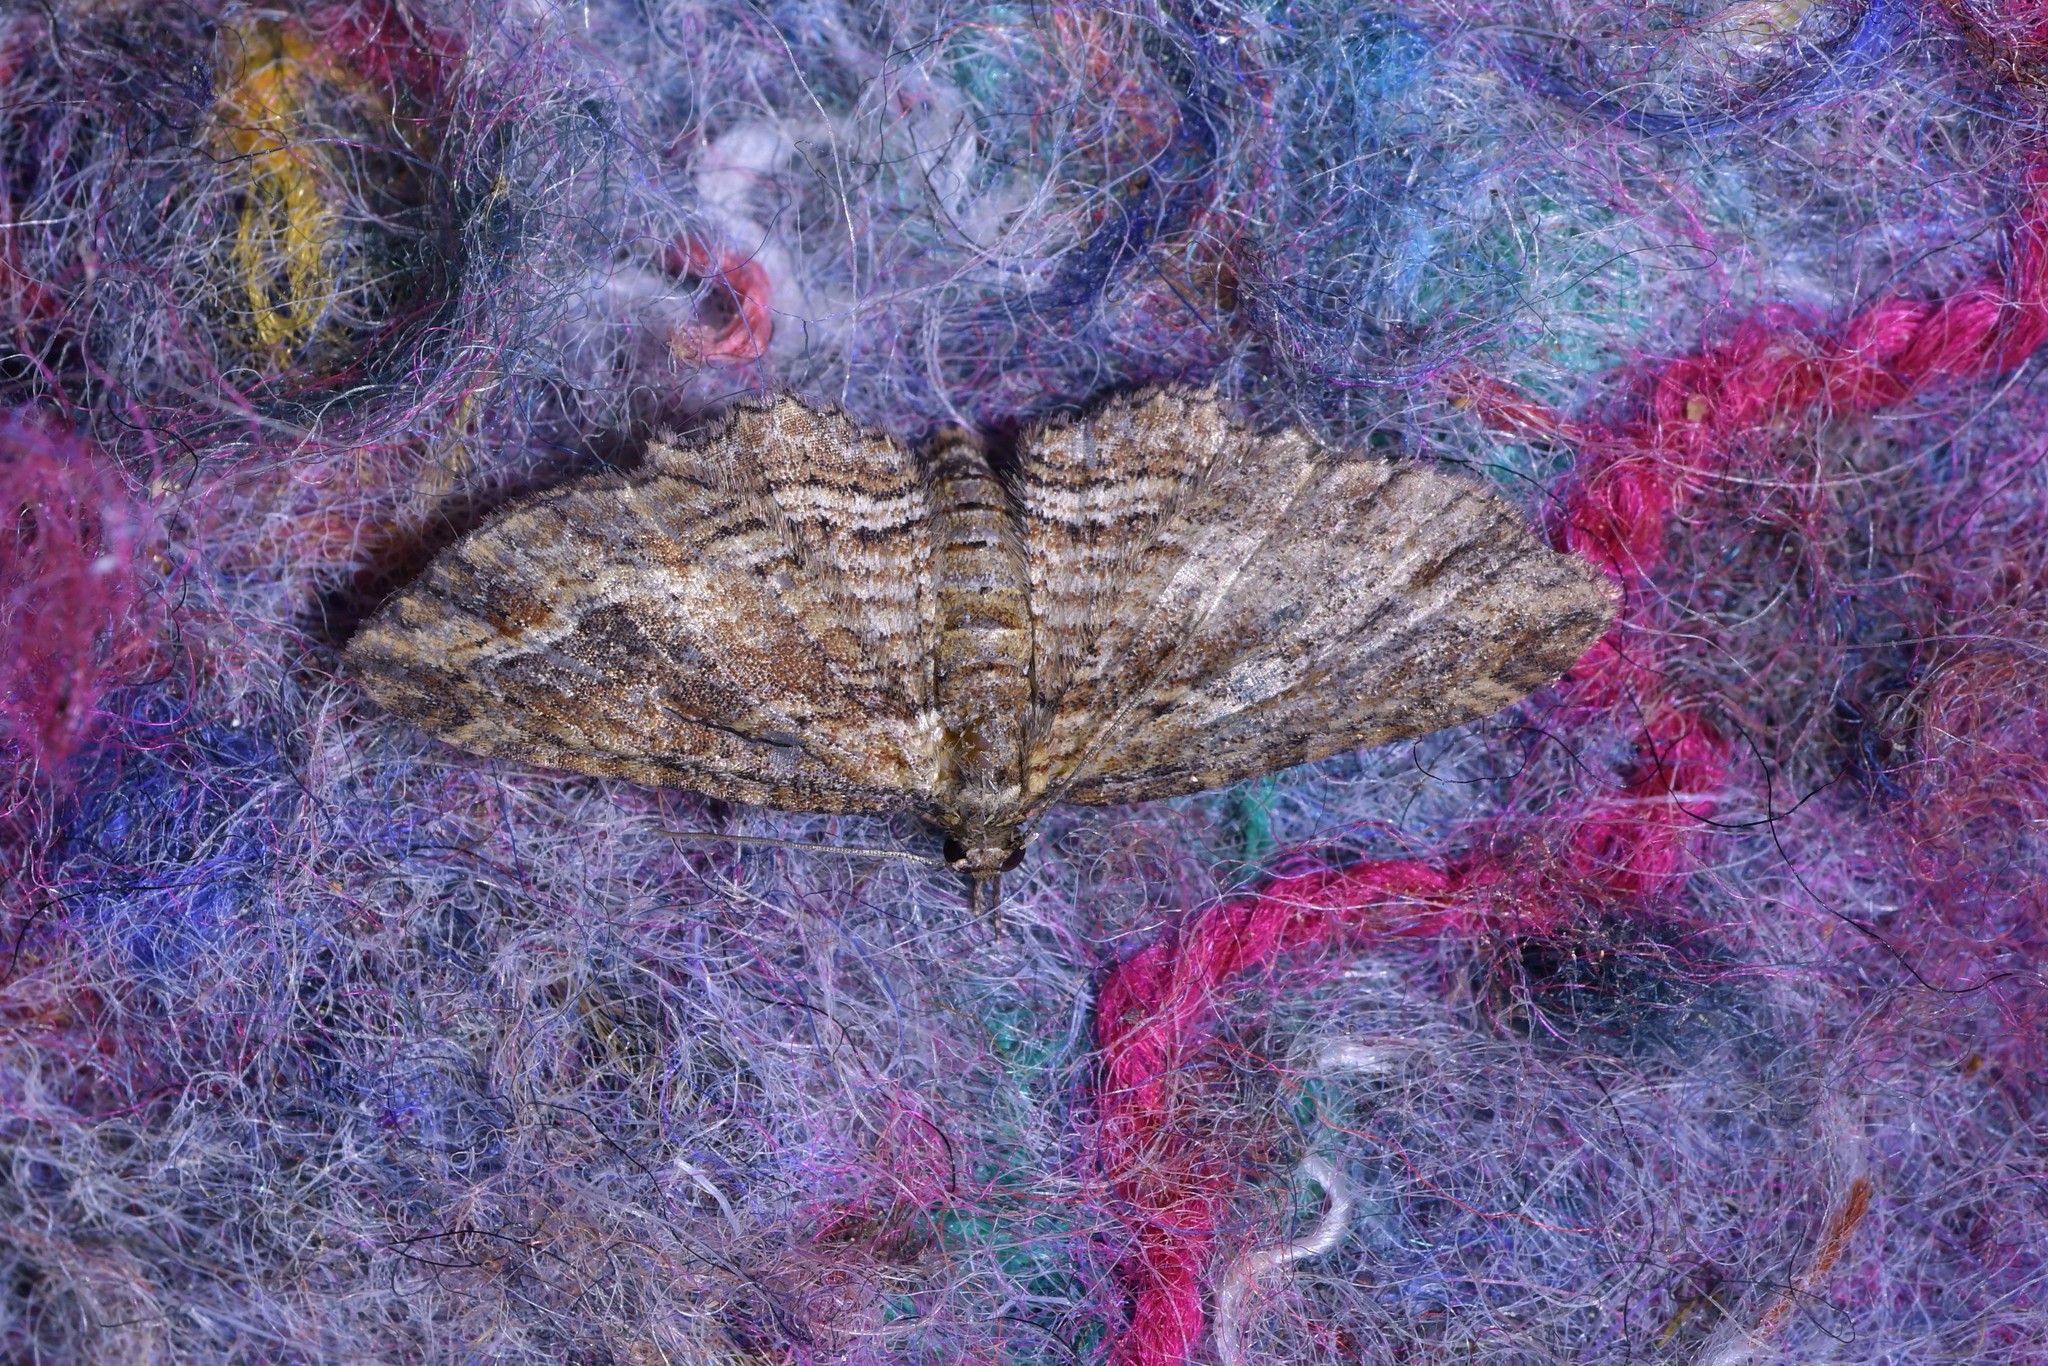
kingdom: Animalia
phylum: Arthropoda
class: Insecta
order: Lepidoptera
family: Geometridae
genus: Chloroclystis
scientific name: Chloroclystis filata
